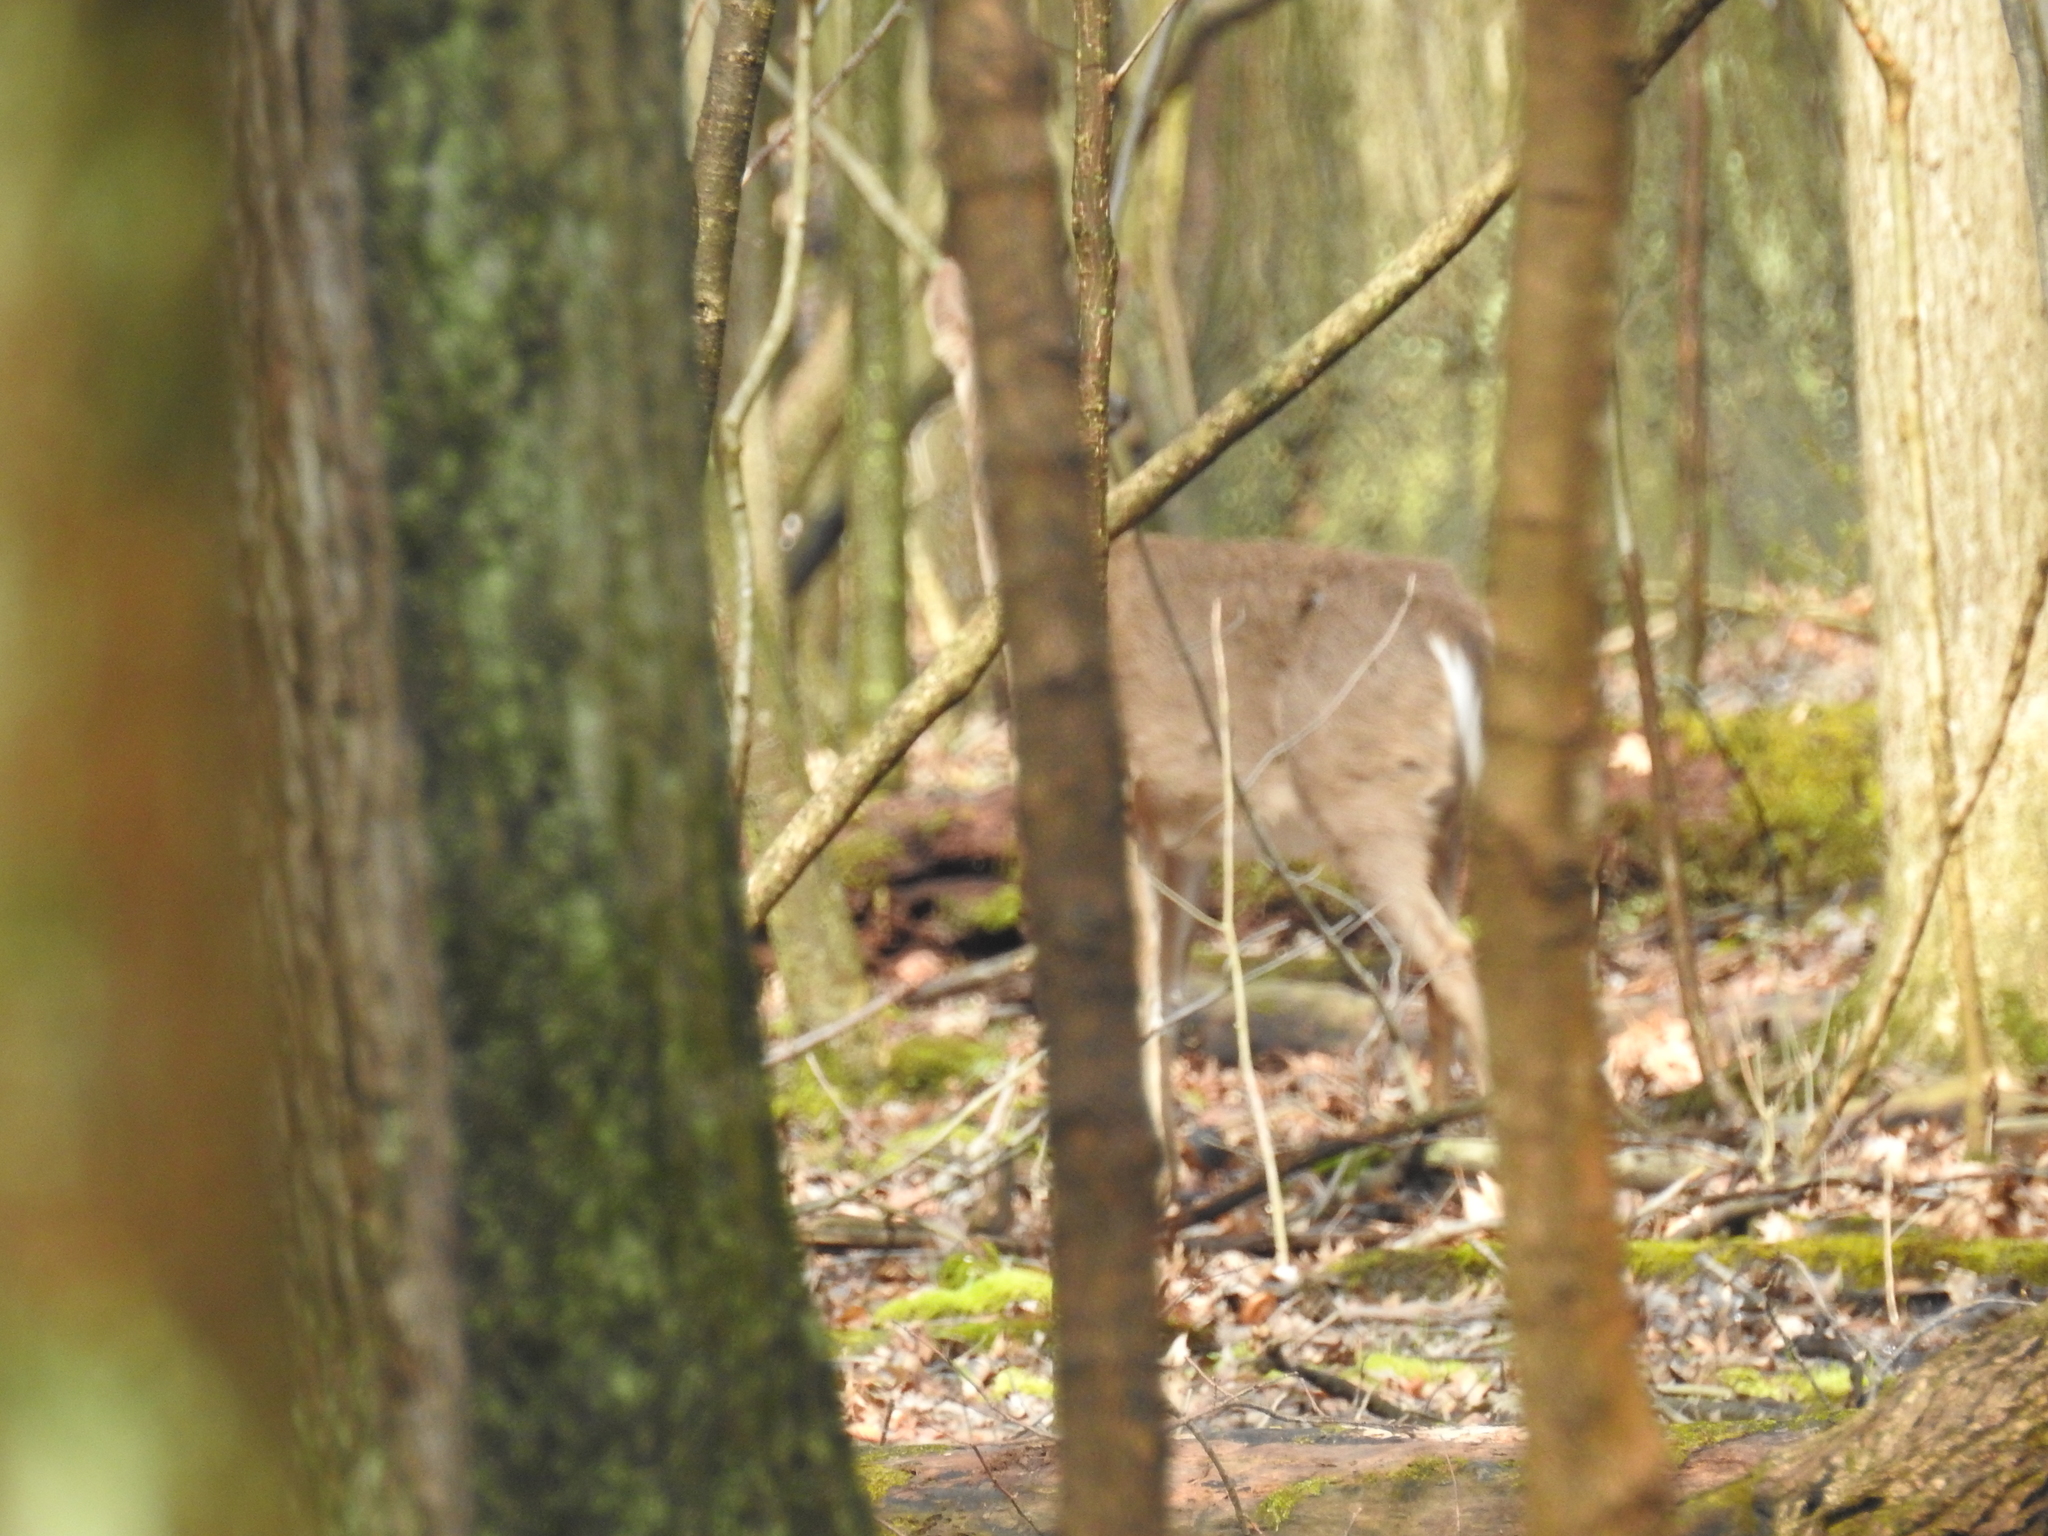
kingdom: Animalia
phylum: Chordata
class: Mammalia
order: Artiodactyla
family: Cervidae
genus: Odocoileus
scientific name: Odocoileus virginianus
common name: White-tailed deer
